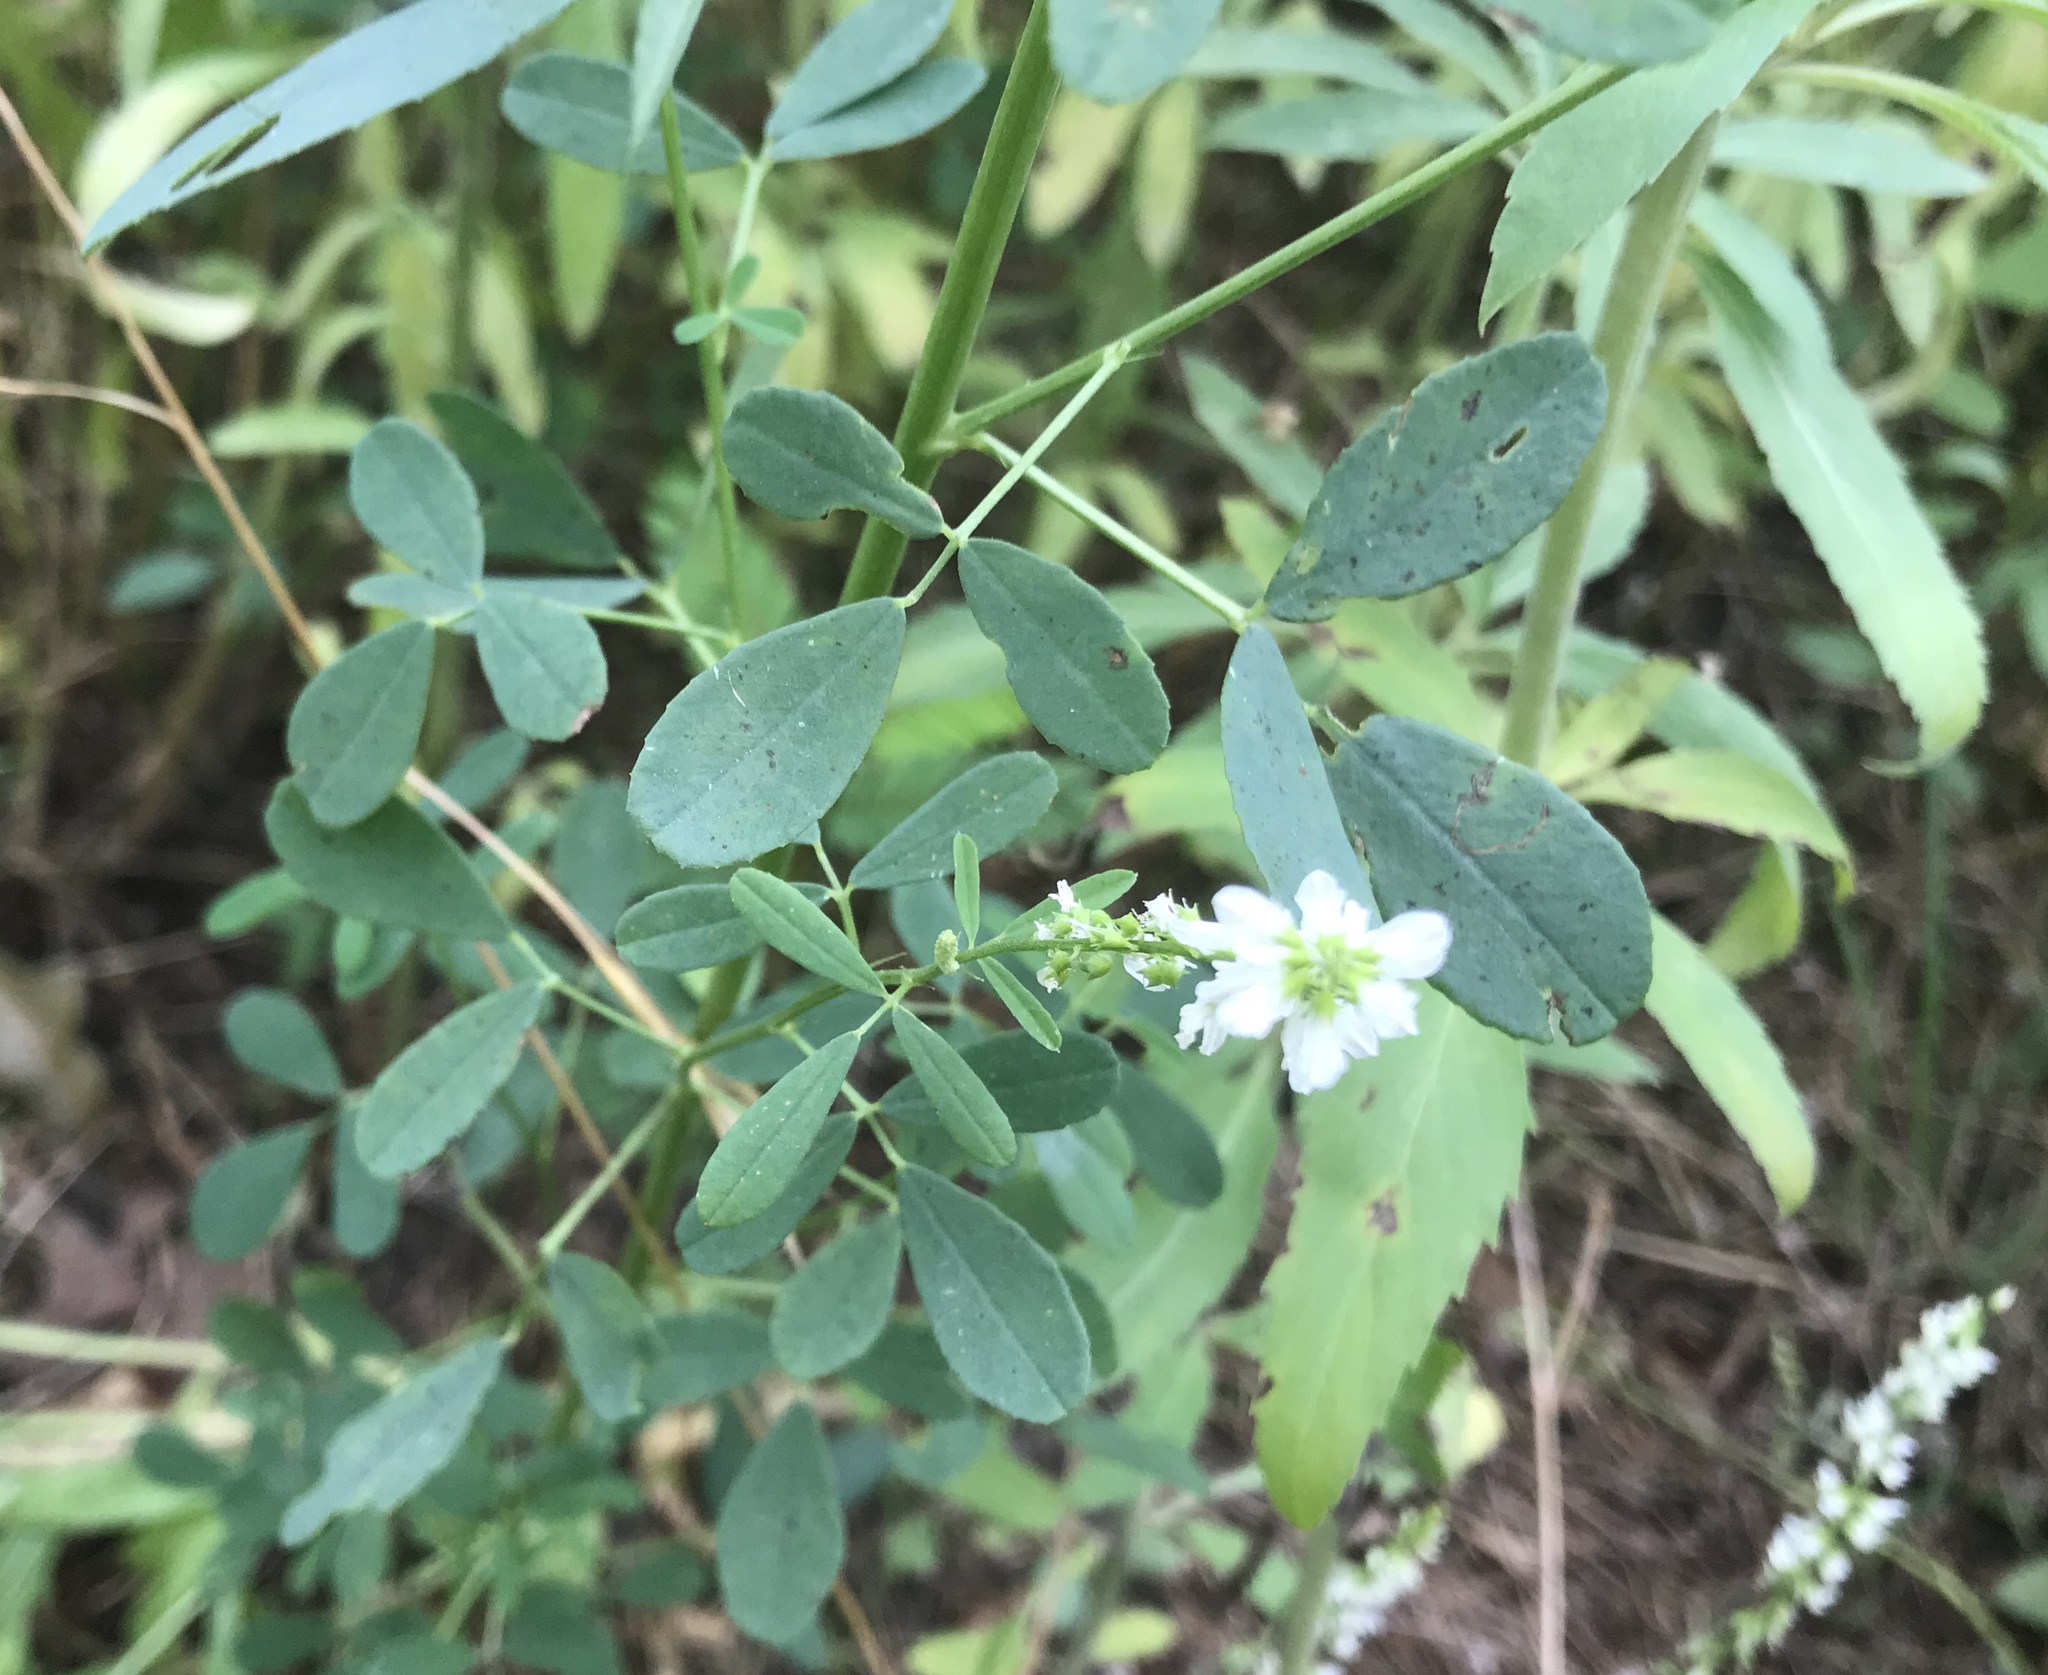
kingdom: Plantae
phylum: Tracheophyta
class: Magnoliopsida
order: Fabales
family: Fabaceae
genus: Melilotus
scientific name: Melilotus albus
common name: White melilot
